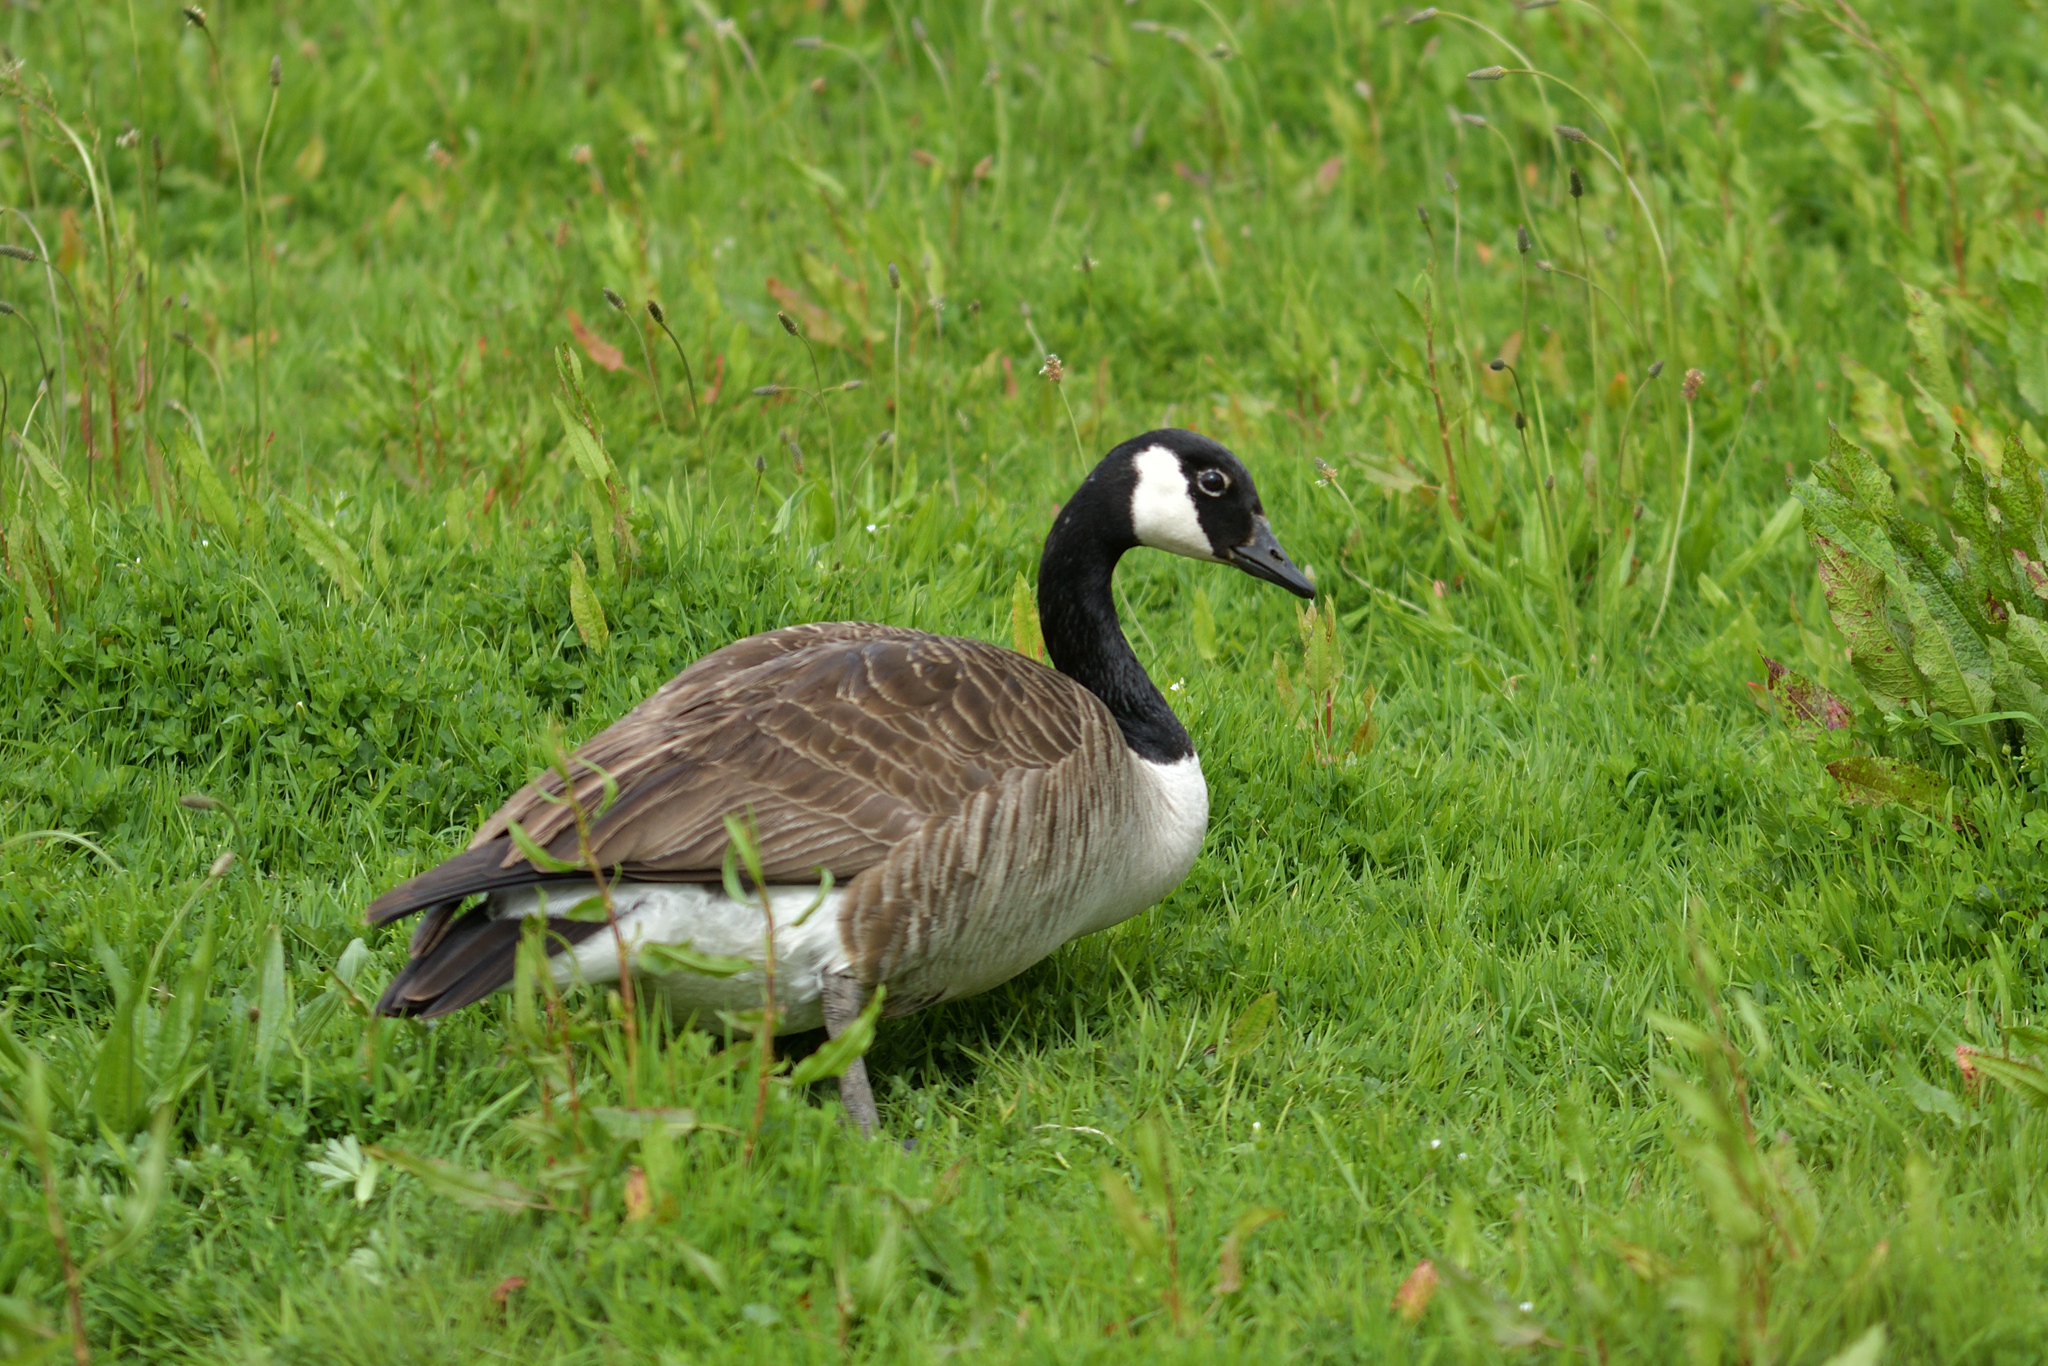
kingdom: Animalia
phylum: Chordata
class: Aves
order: Anseriformes
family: Anatidae
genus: Branta
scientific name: Branta canadensis
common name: Canada goose
